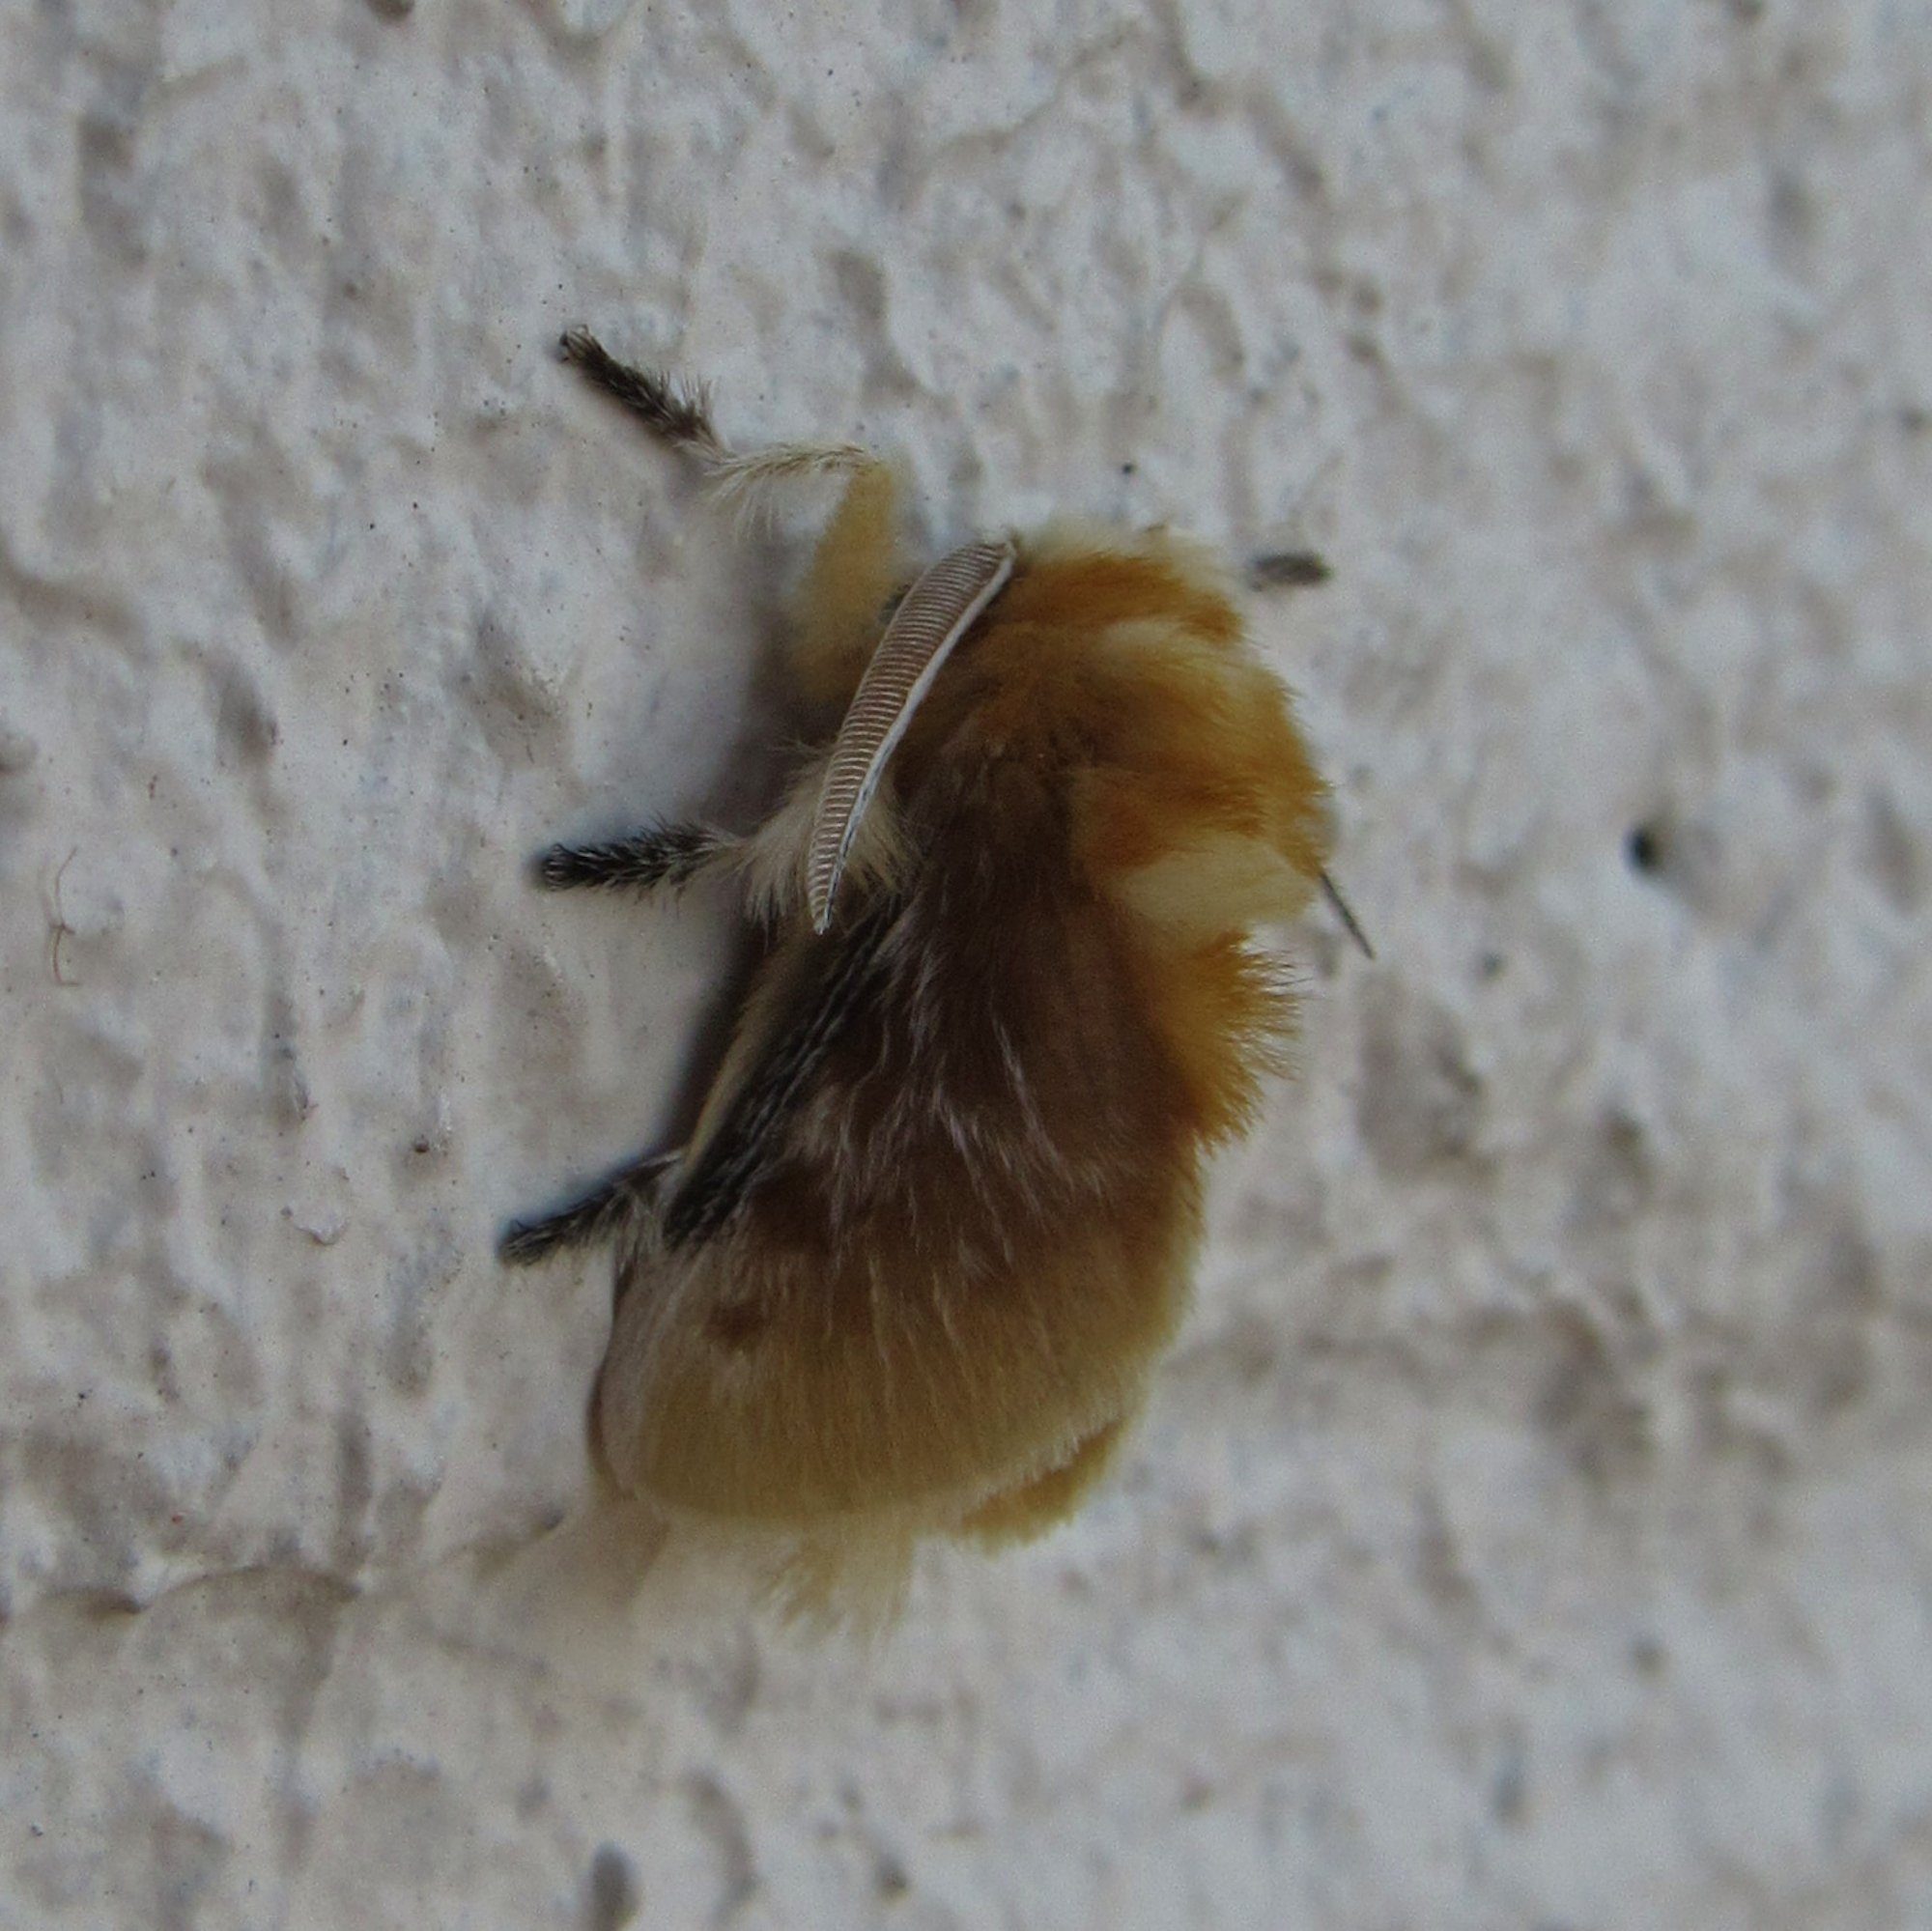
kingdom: Animalia
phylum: Arthropoda
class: Insecta
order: Lepidoptera
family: Megalopygidae
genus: Megalopyge
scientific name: Megalopyge opercularis
